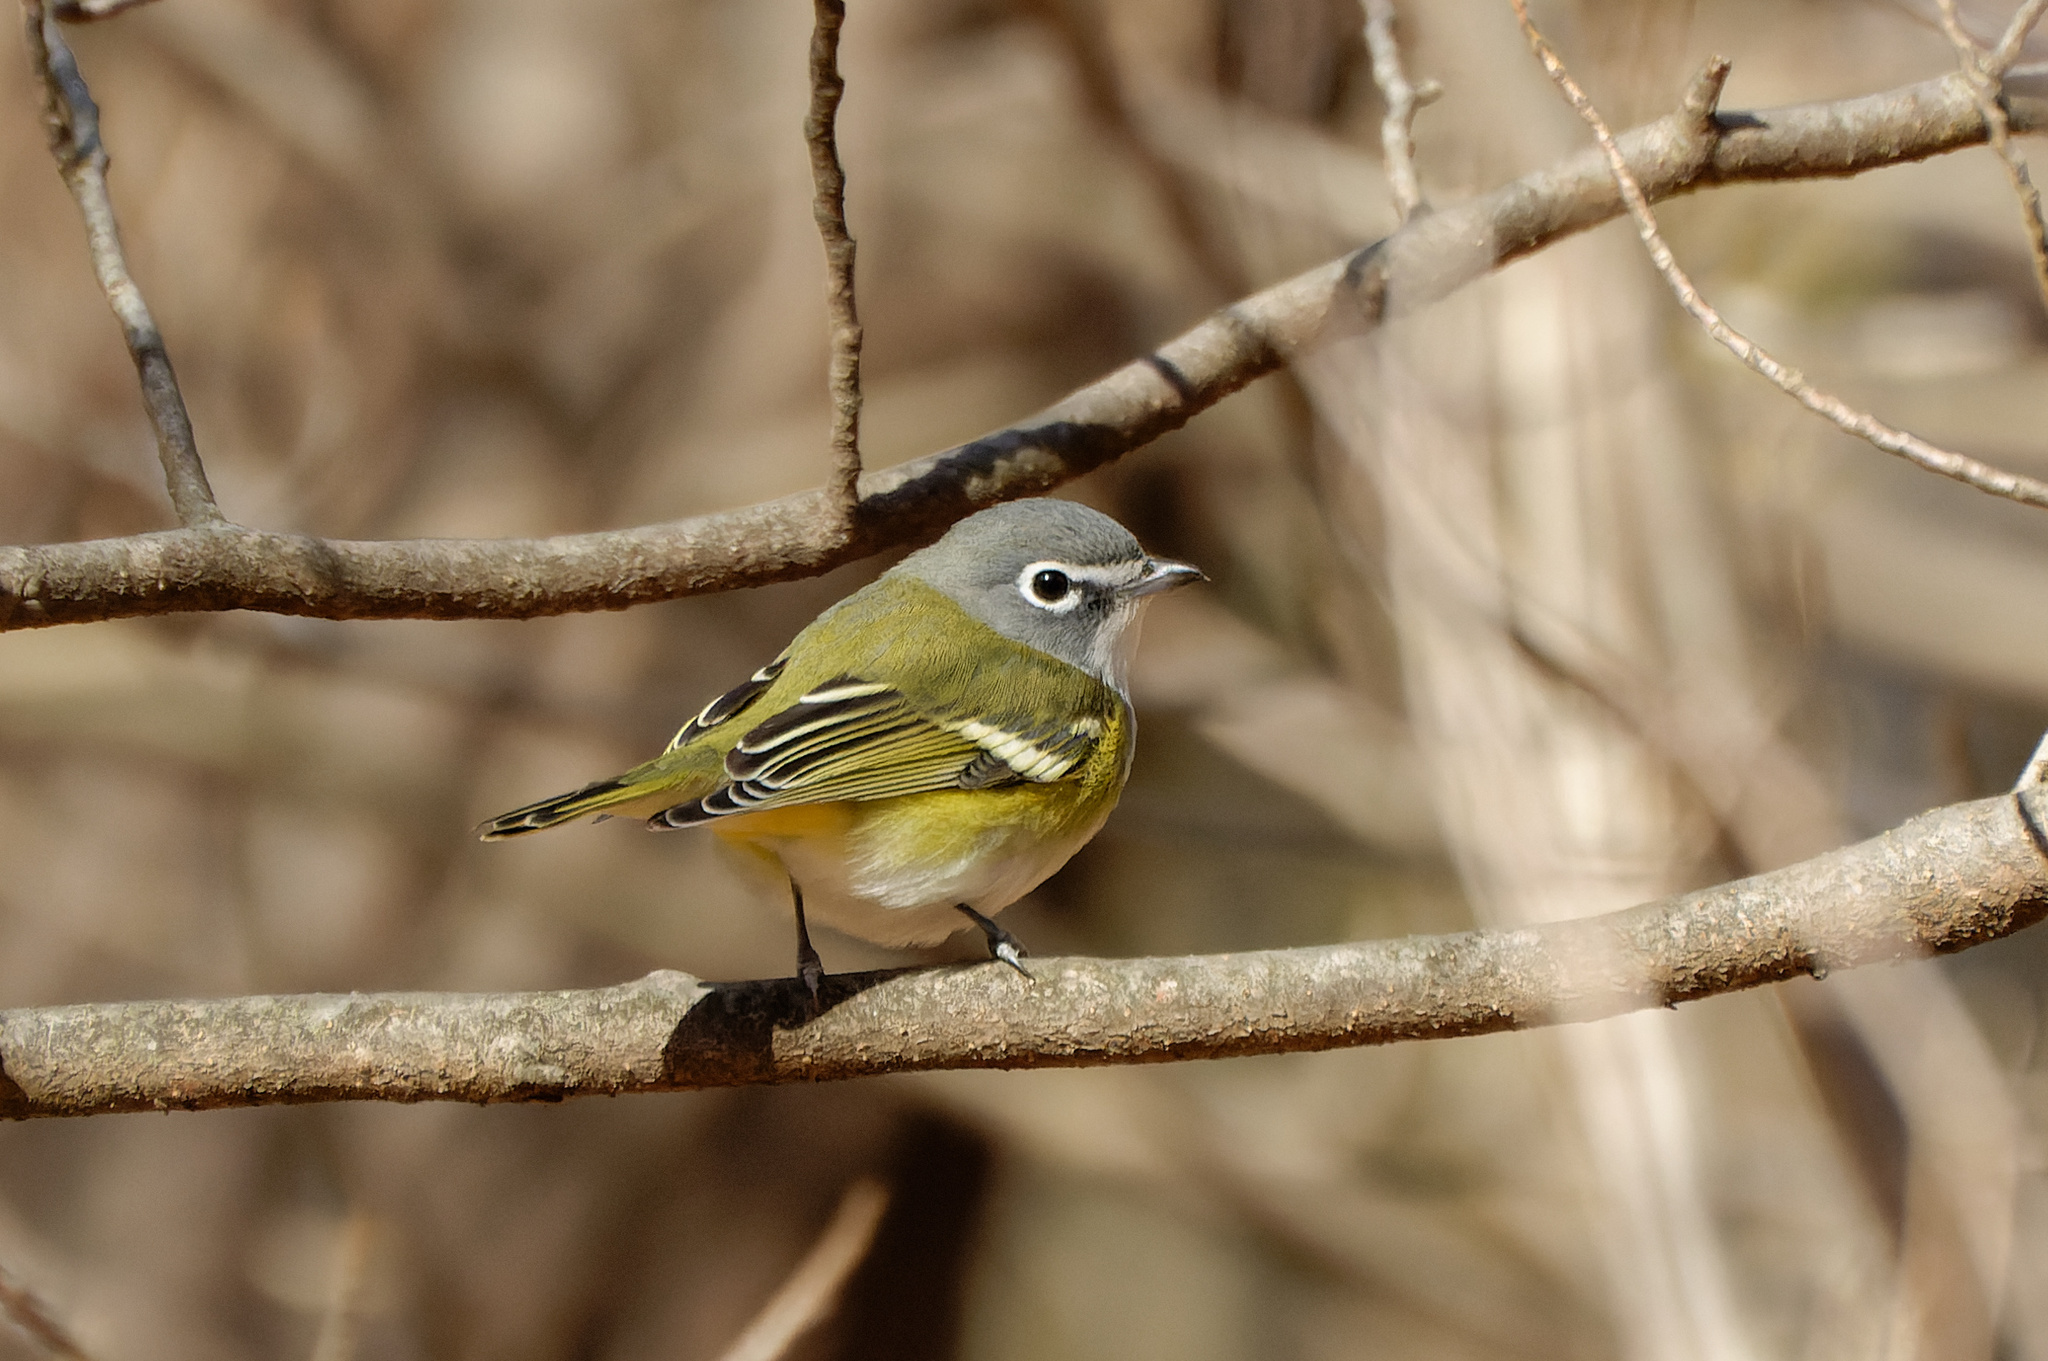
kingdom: Animalia
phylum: Chordata
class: Aves
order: Passeriformes
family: Vireonidae
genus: Vireo
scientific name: Vireo solitarius
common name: Blue-headed vireo
